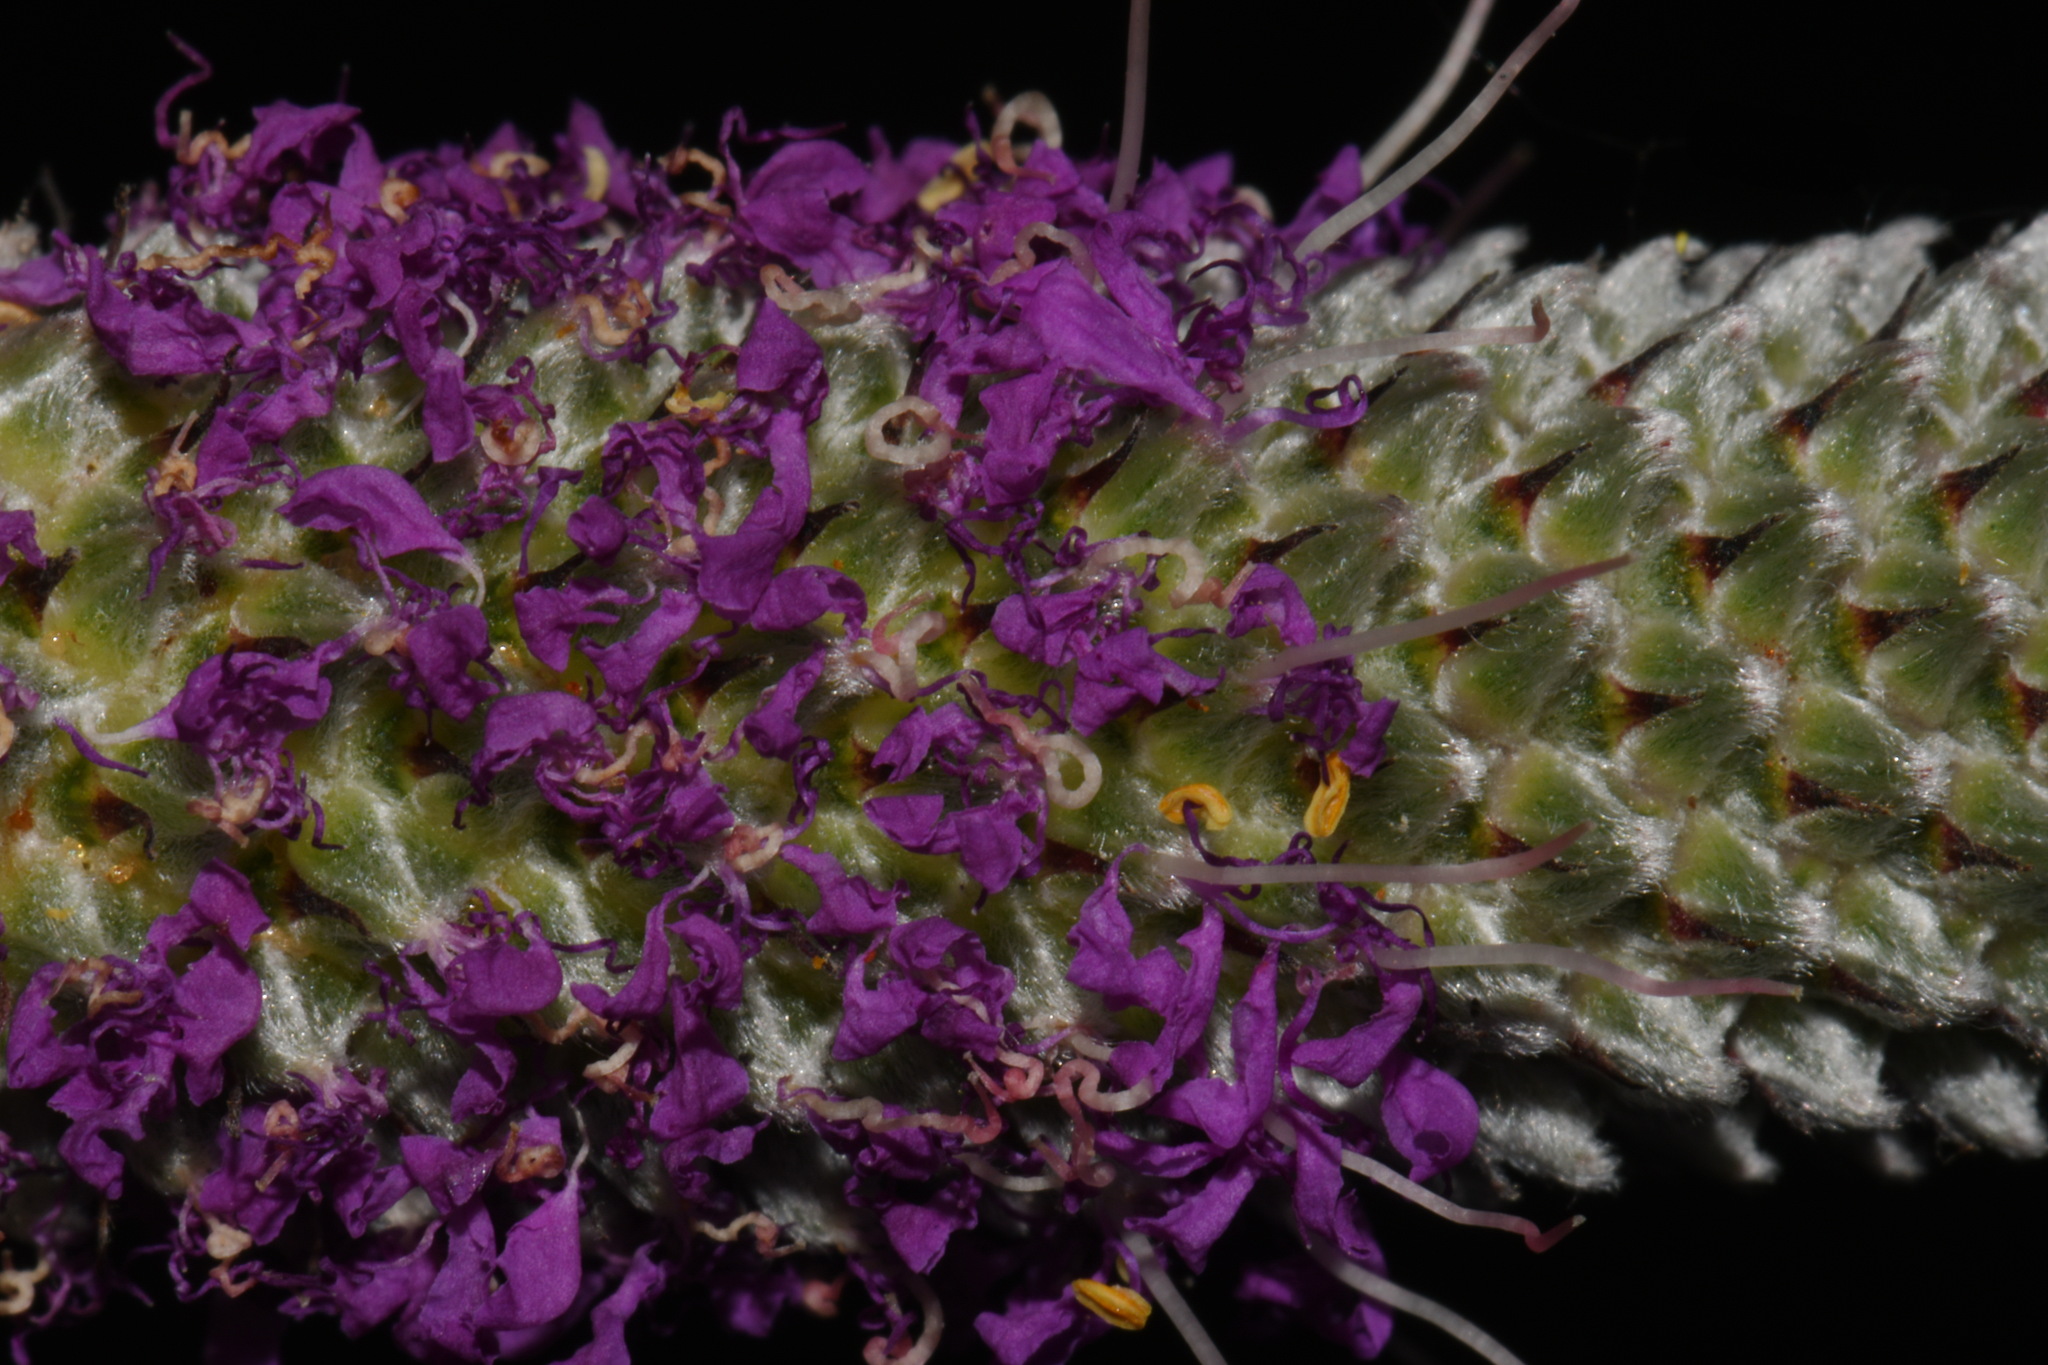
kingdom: Plantae
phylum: Tracheophyta
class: Magnoliopsida
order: Fabales
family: Fabaceae
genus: Dalea
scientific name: Dalea purpurea
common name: Purple prairie-clover
